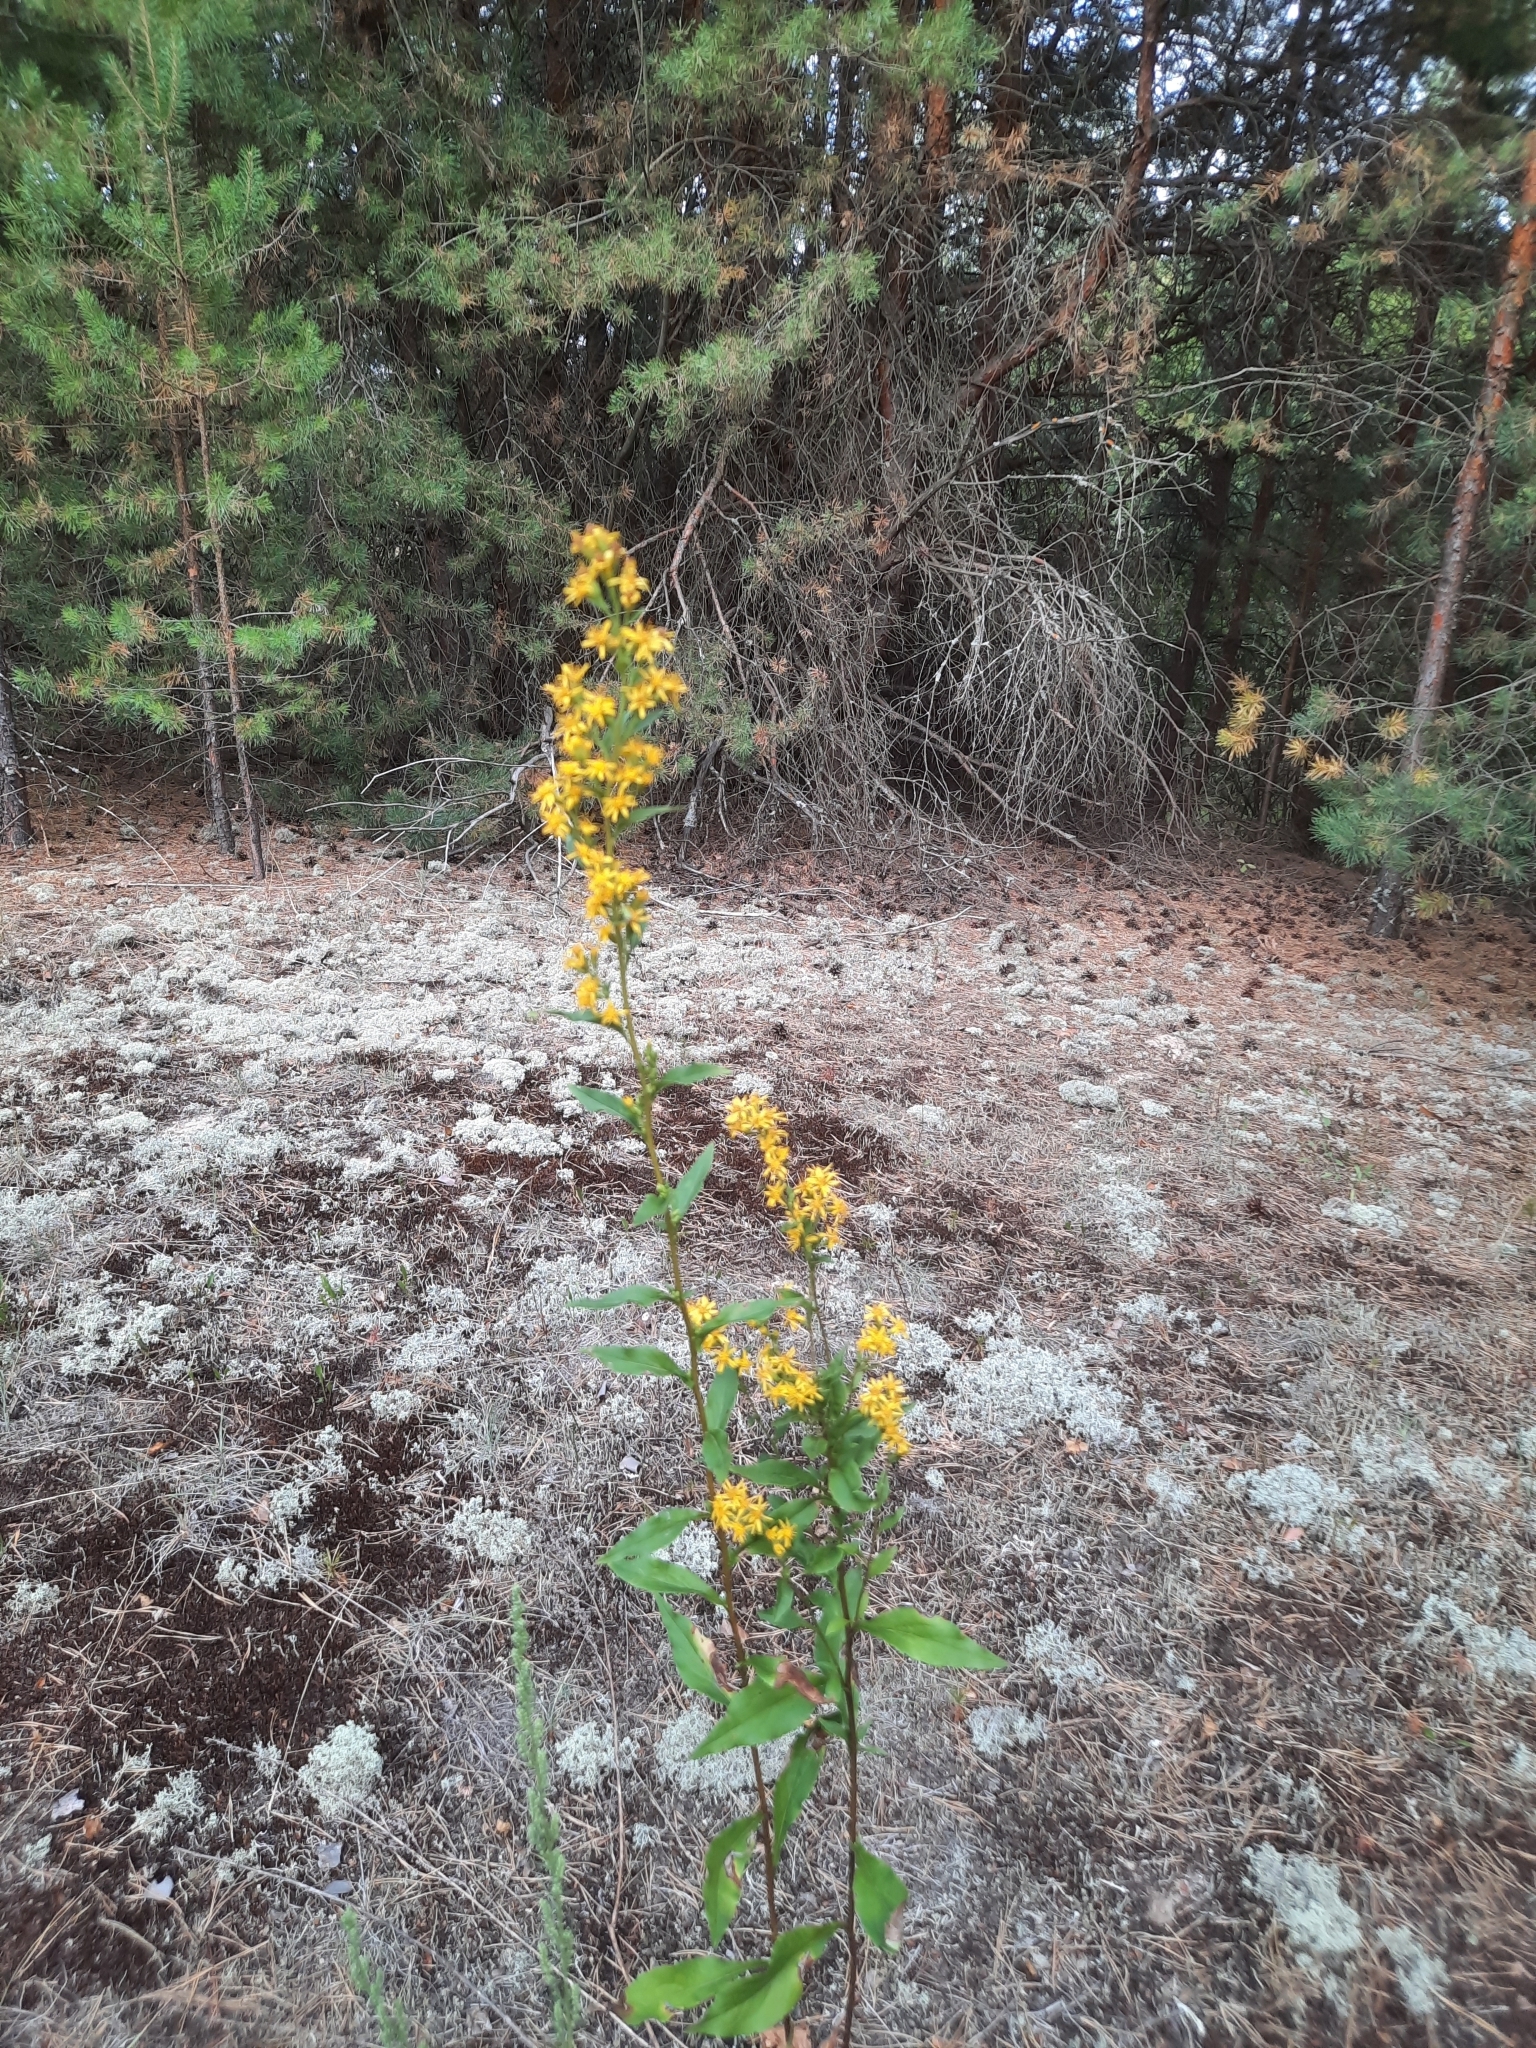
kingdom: Plantae
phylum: Tracheophyta
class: Magnoliopsida
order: Asterales
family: Asteraceae
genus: Solidago
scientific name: Solidago virgaurea
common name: Goldenrod
